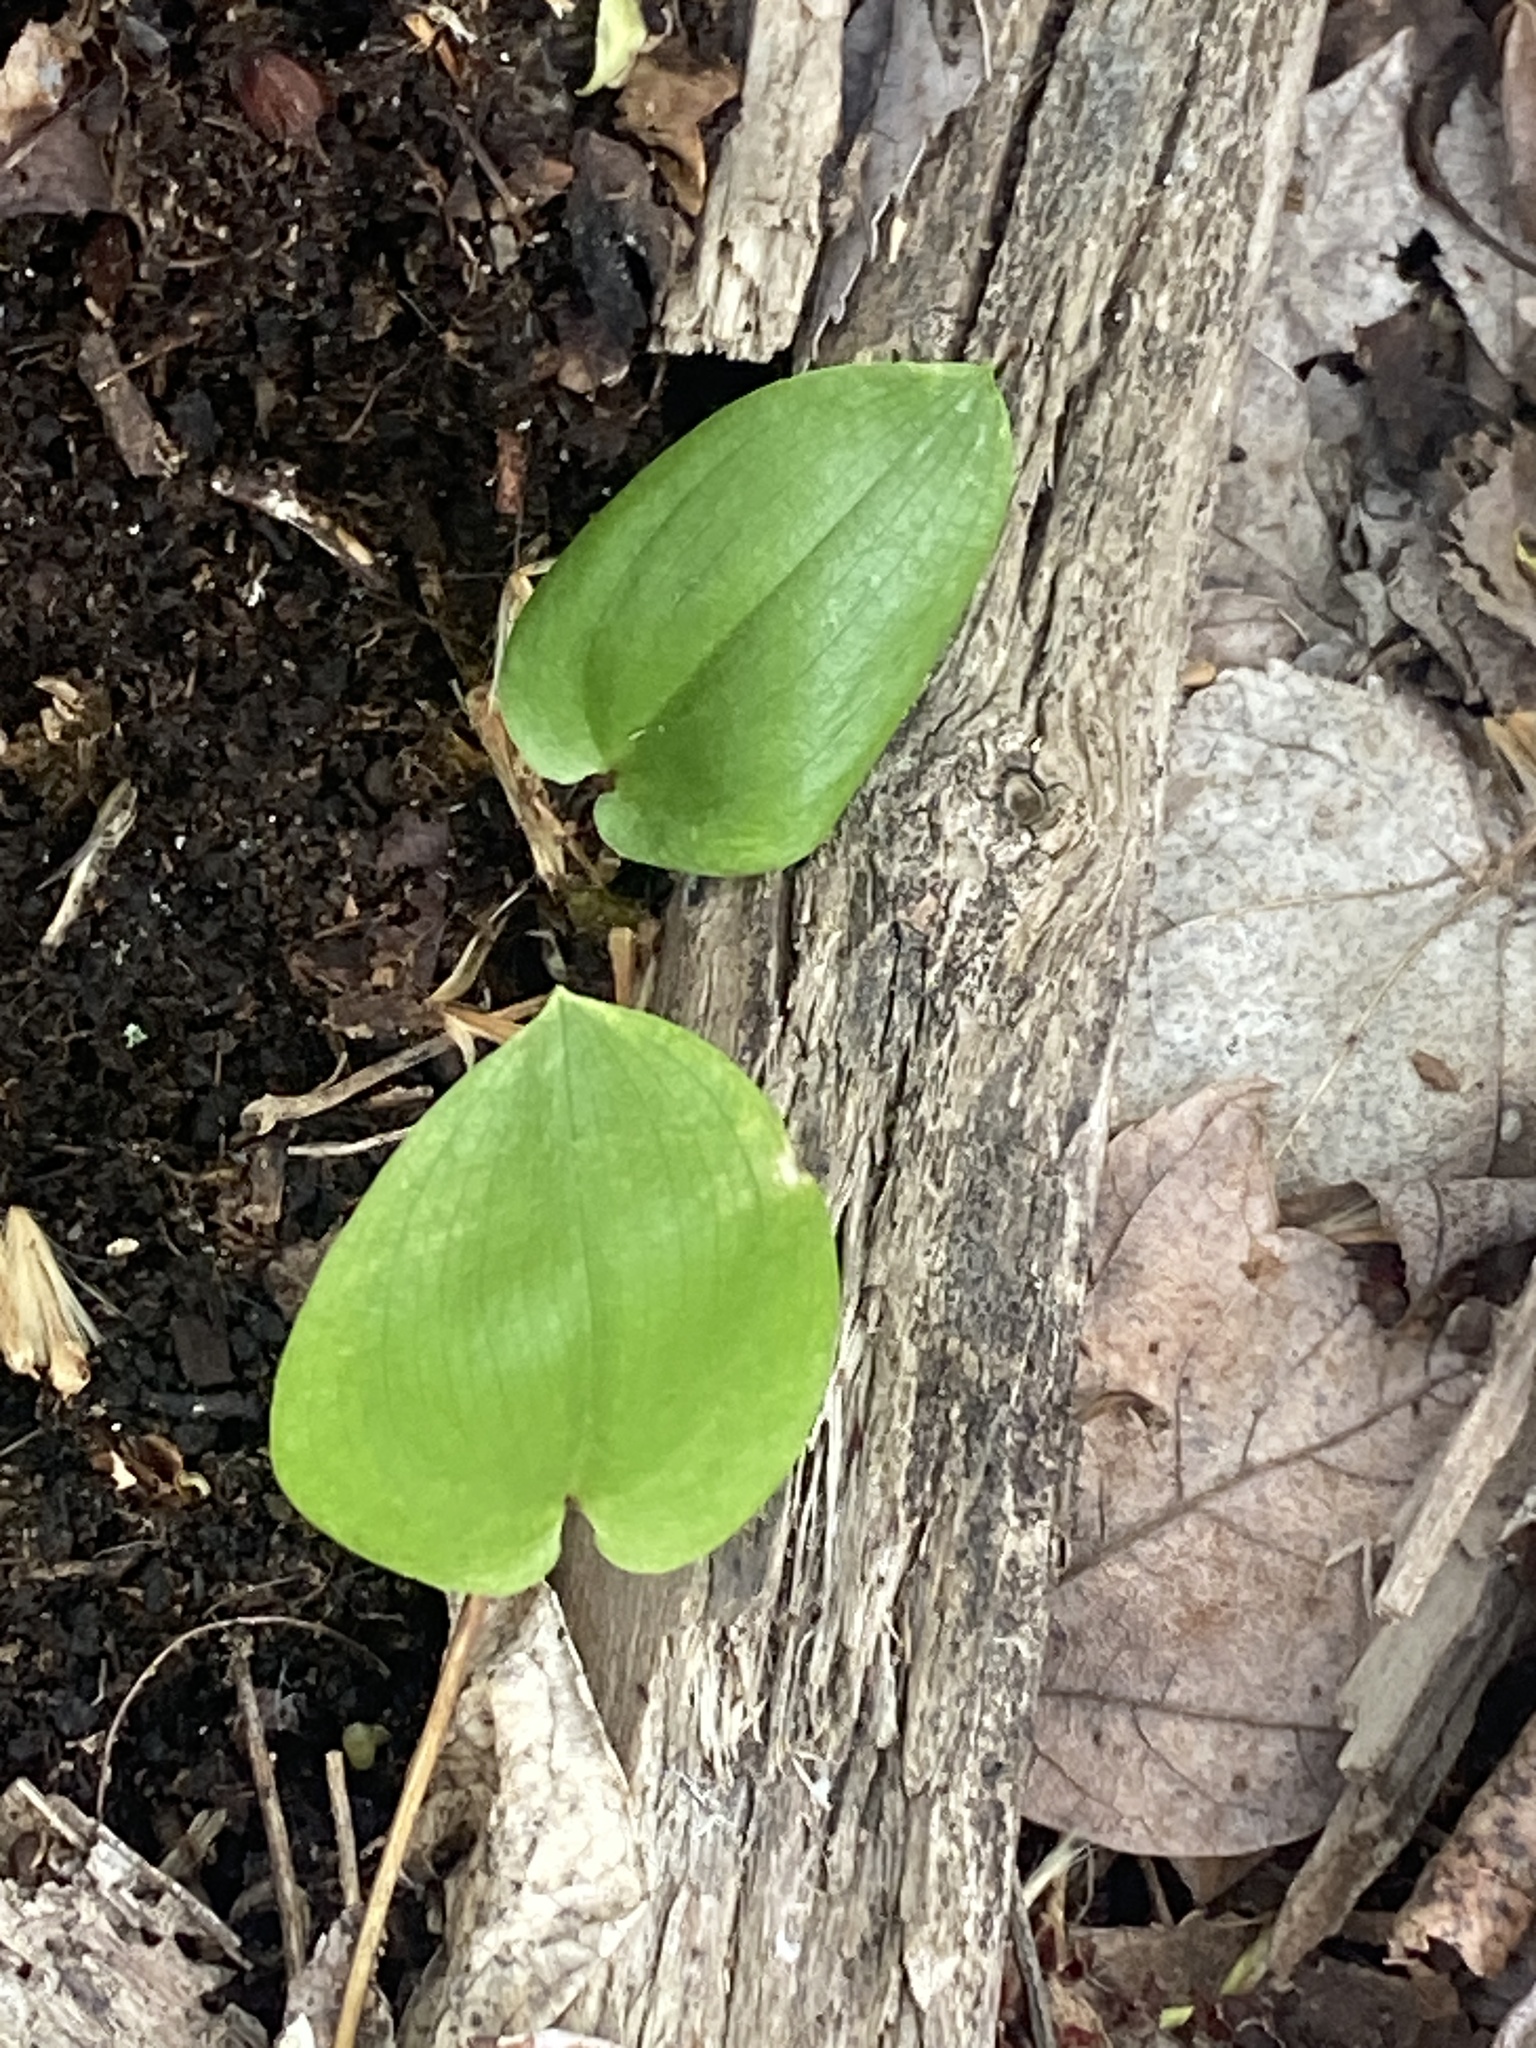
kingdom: Plantae
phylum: Tracheophyta
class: Liliopsida
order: Asparagales
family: Asparagaceae
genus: Maianthemum
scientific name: Maianthemum canadense
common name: False lily-of-the-valley
